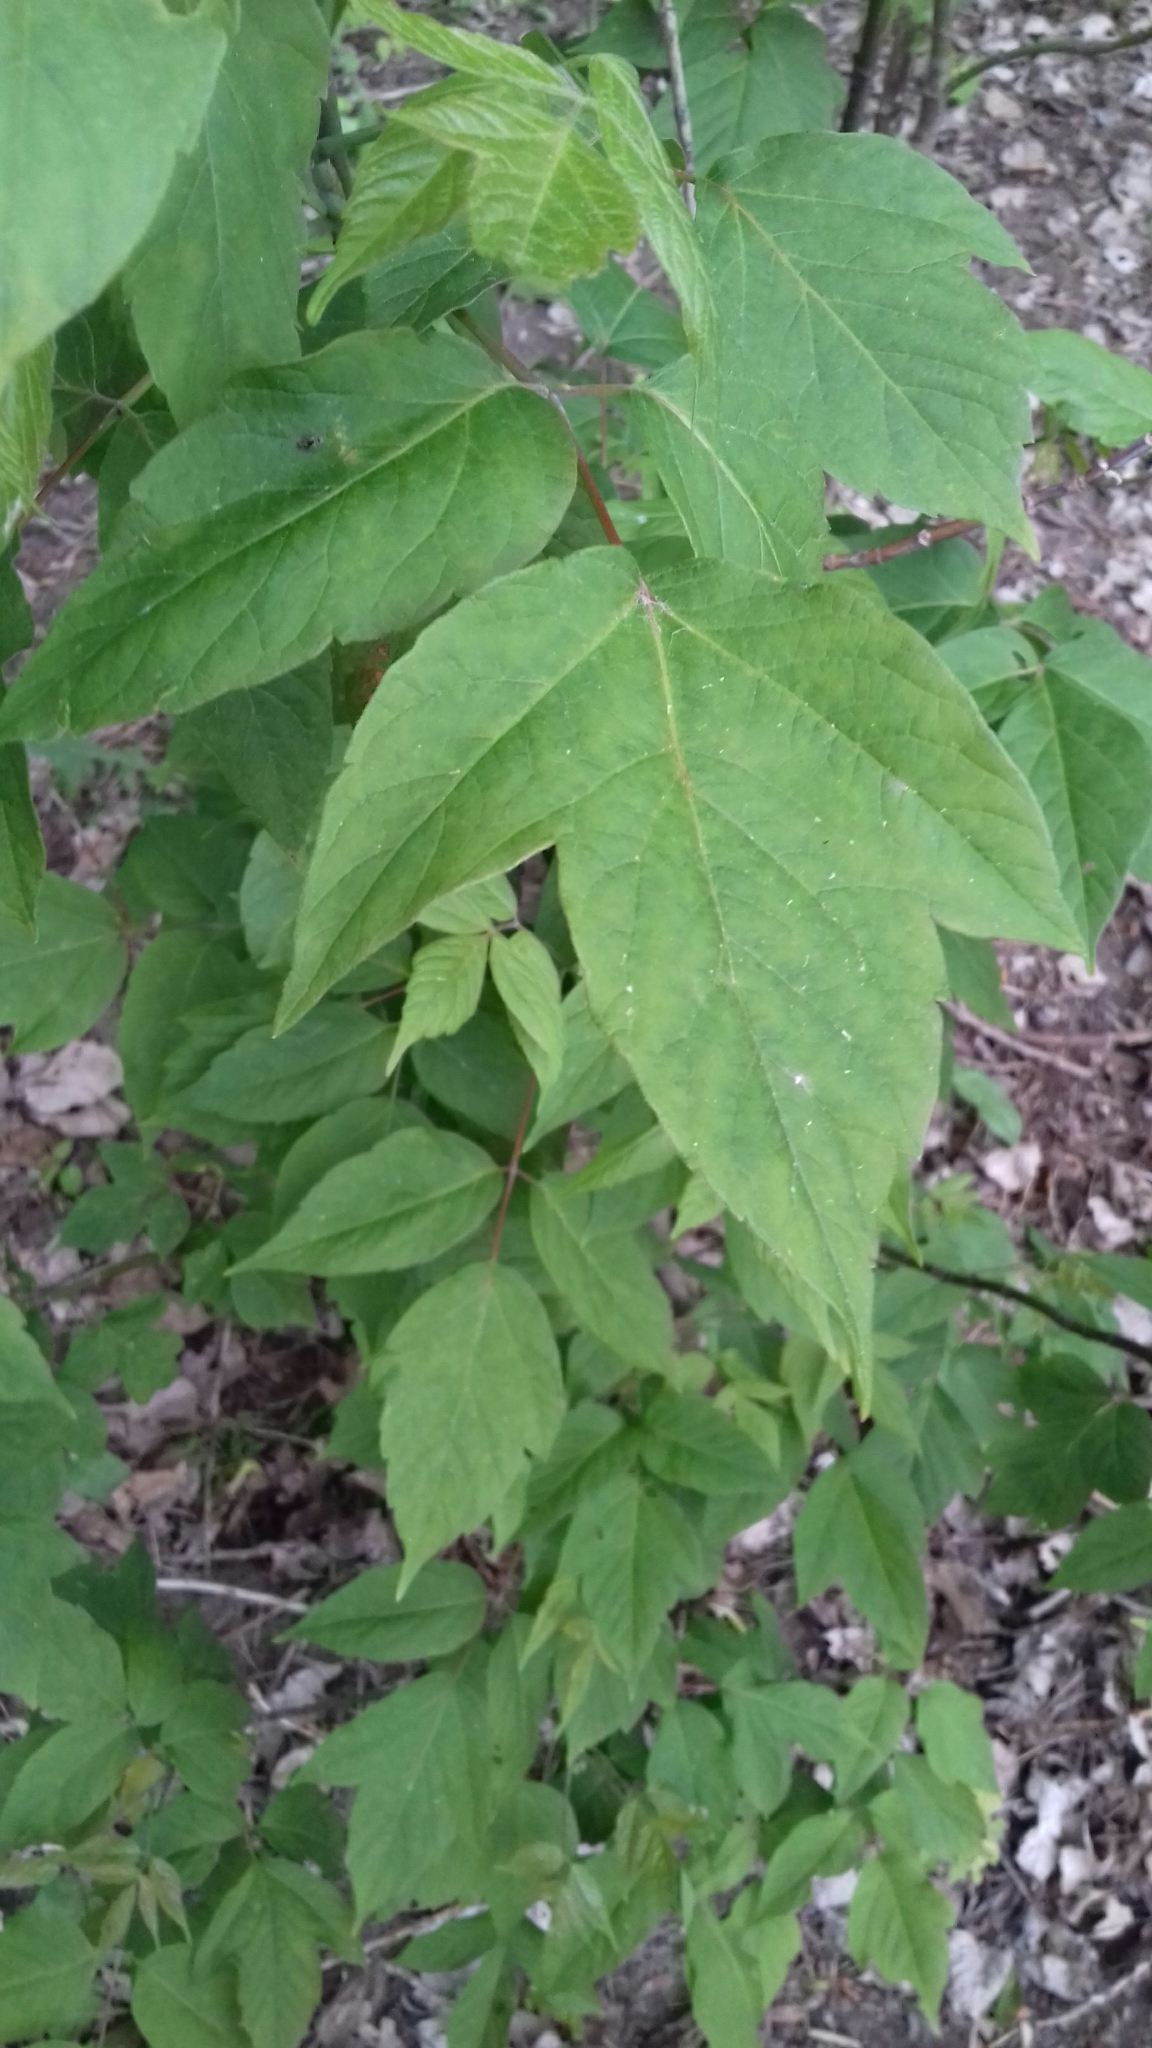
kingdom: Plantae
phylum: Tracheophyta
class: Magnoliopsida
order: Sapindales
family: Sapindaceae
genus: Acer
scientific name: Acer negundo
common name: Ashleaf maple
